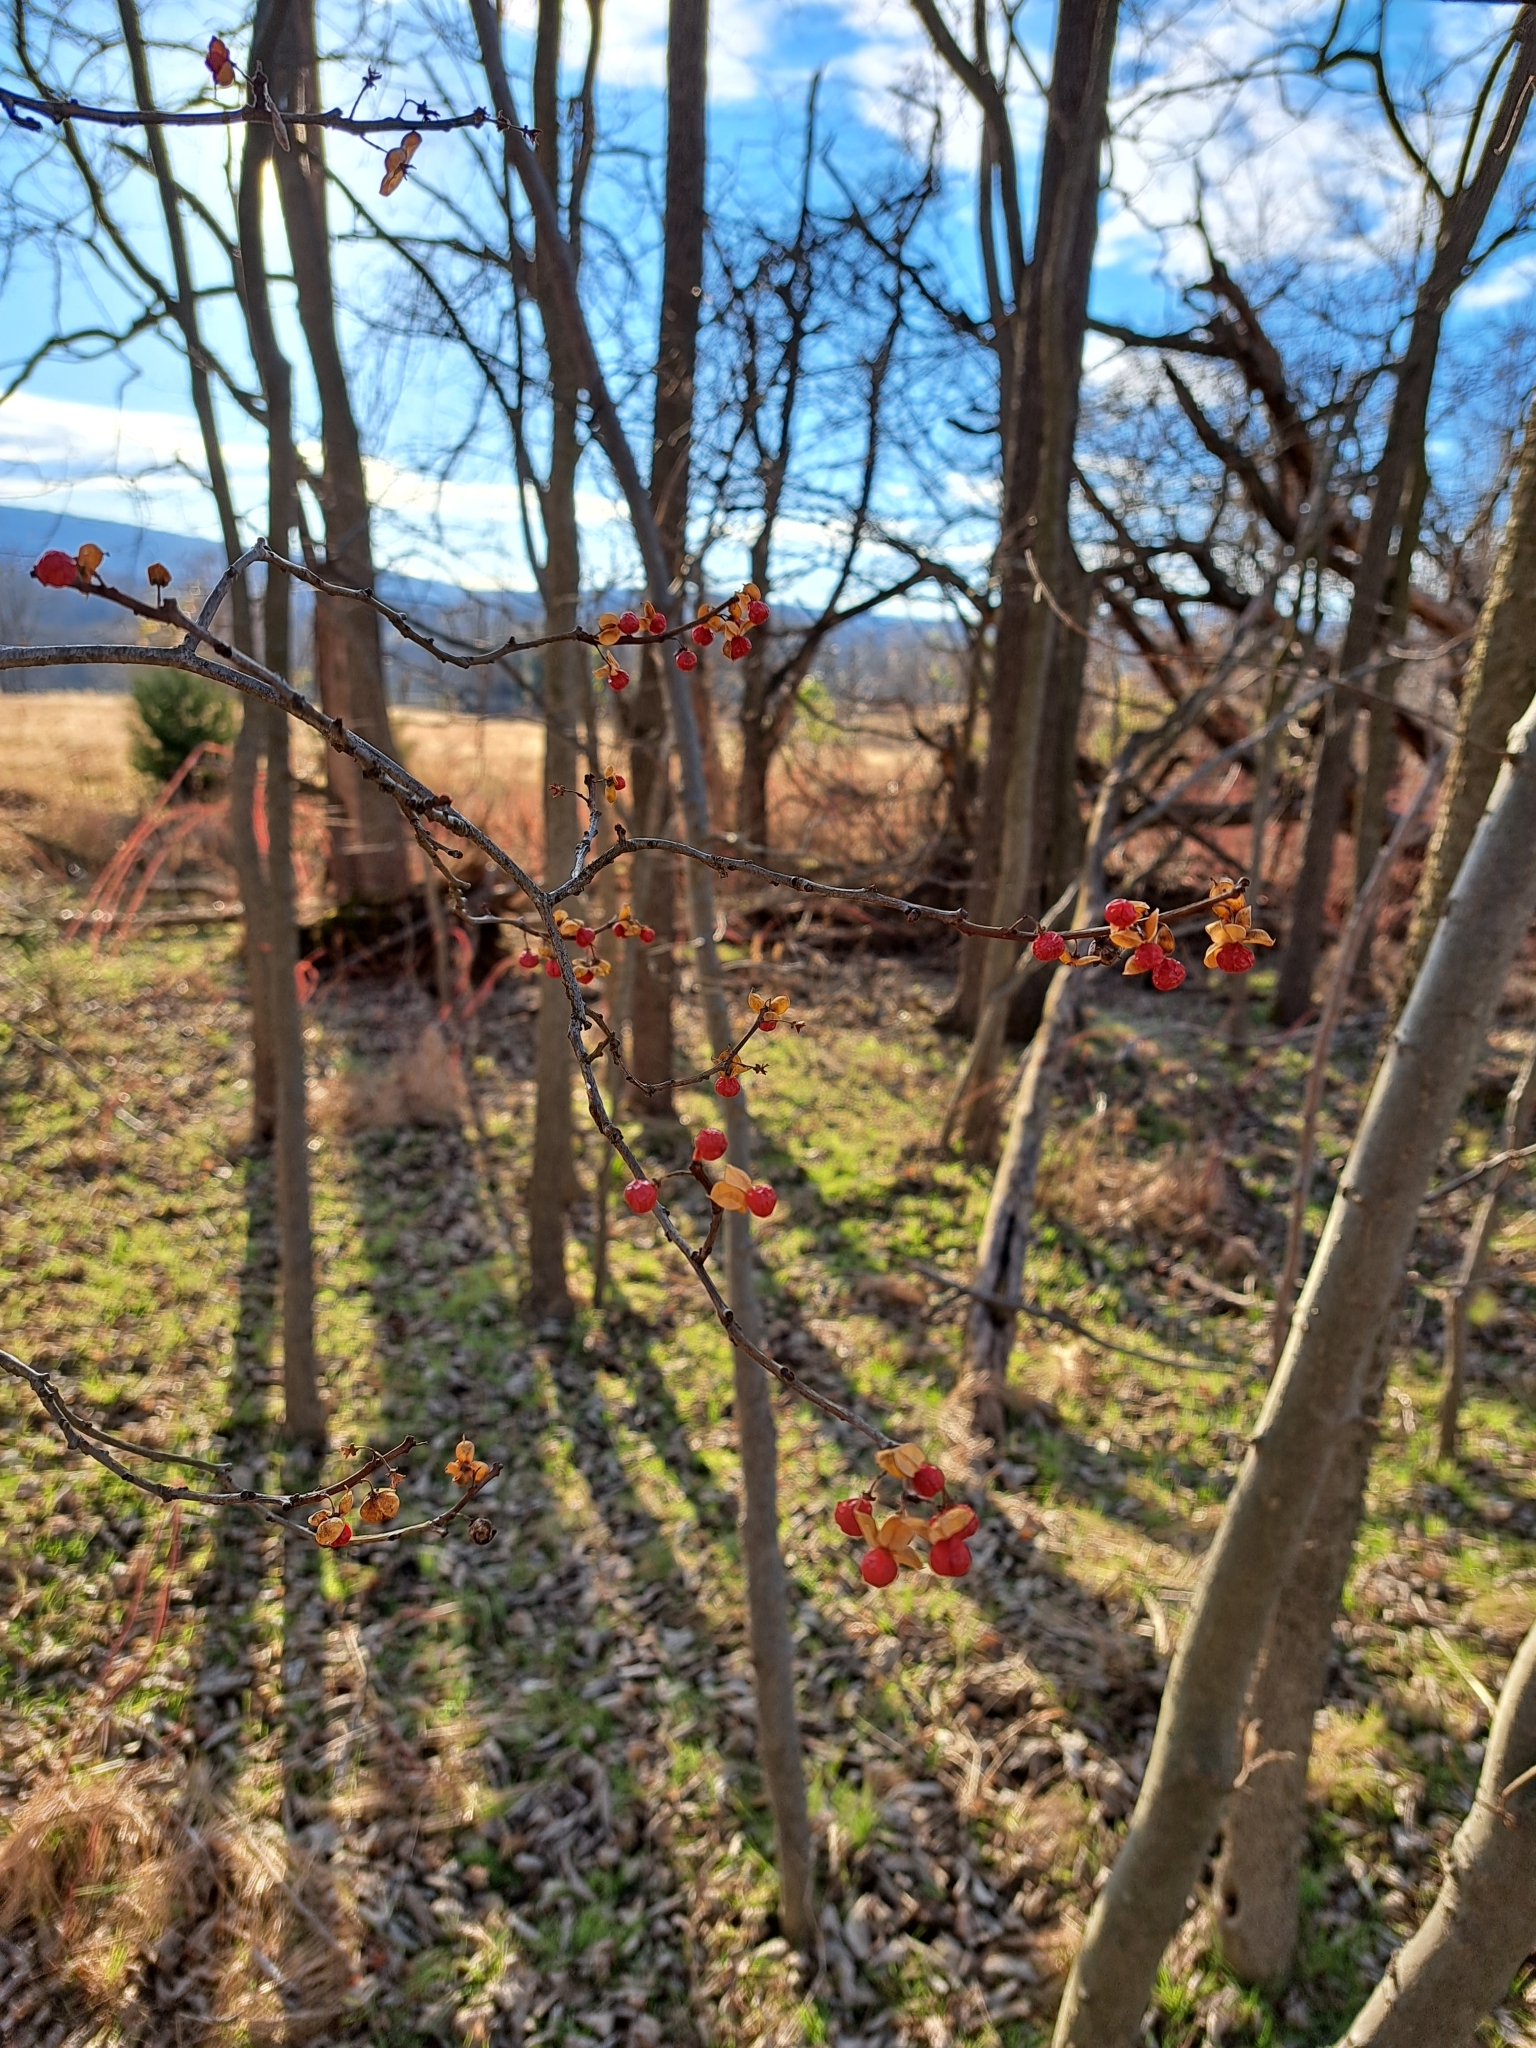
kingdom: Plantae
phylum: Tracheophyta
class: Magnoliopsida
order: Celastrales
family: Celastraceae
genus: Celastrus
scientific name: Celastrus orbiculatus
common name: Oriental bittersweet
